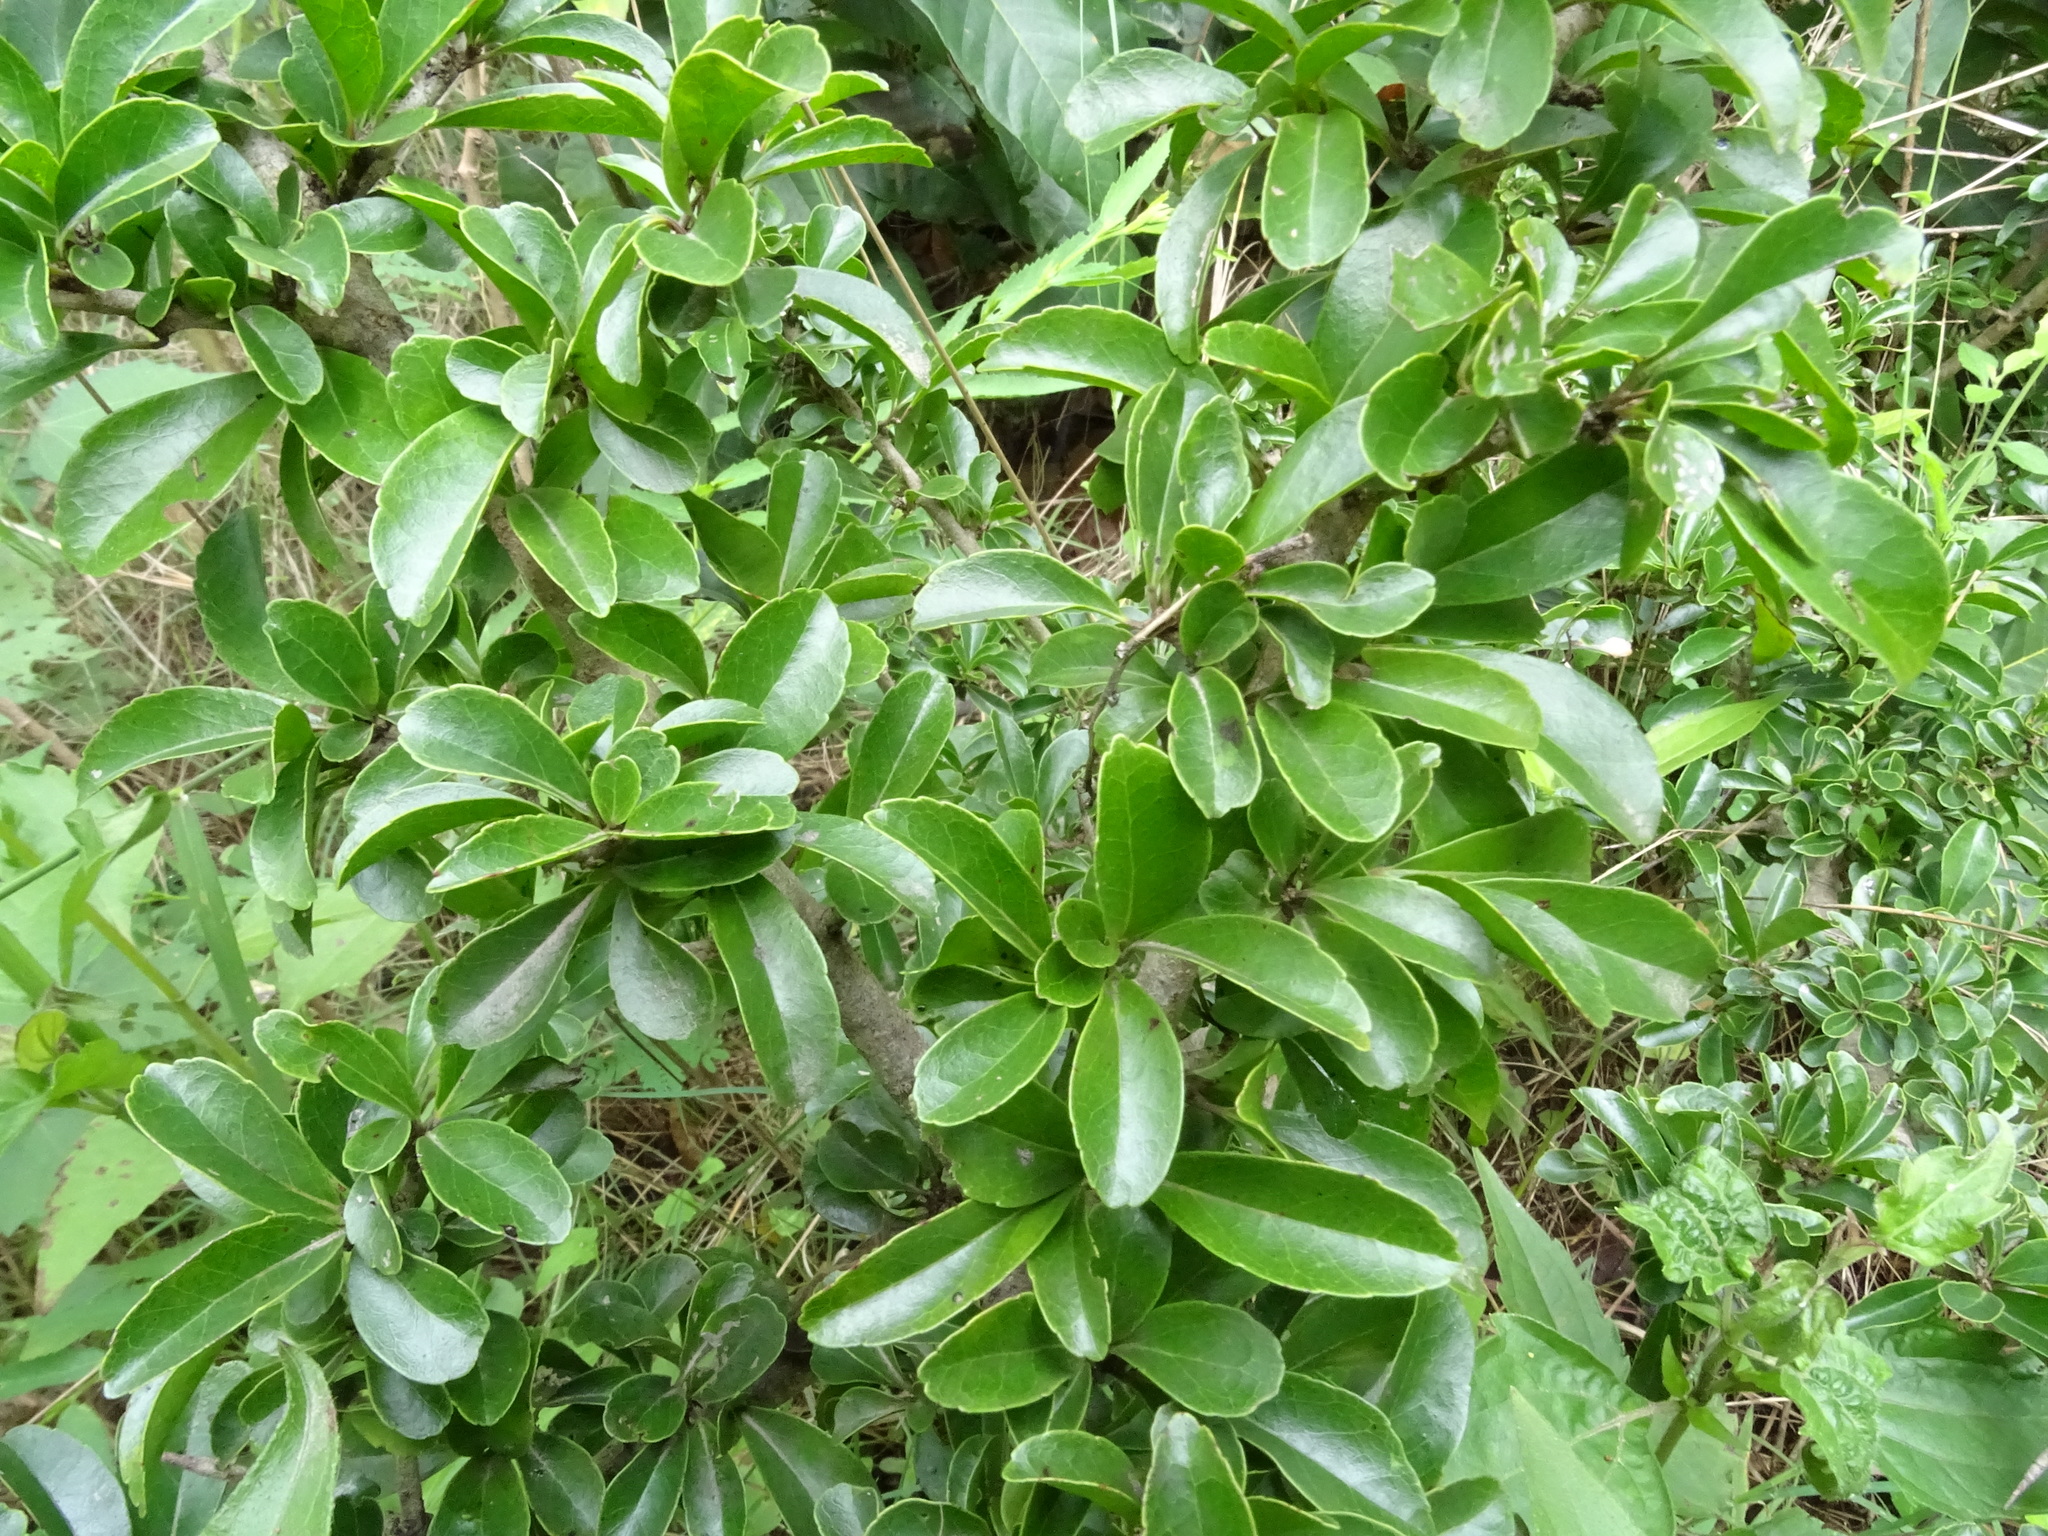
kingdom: Plantae
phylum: Tracheophyta
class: Magnoliopsida
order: Malpighiales
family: Salicaceae
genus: Flacourtia
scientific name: Flacourtia indica
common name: Governor's plum
